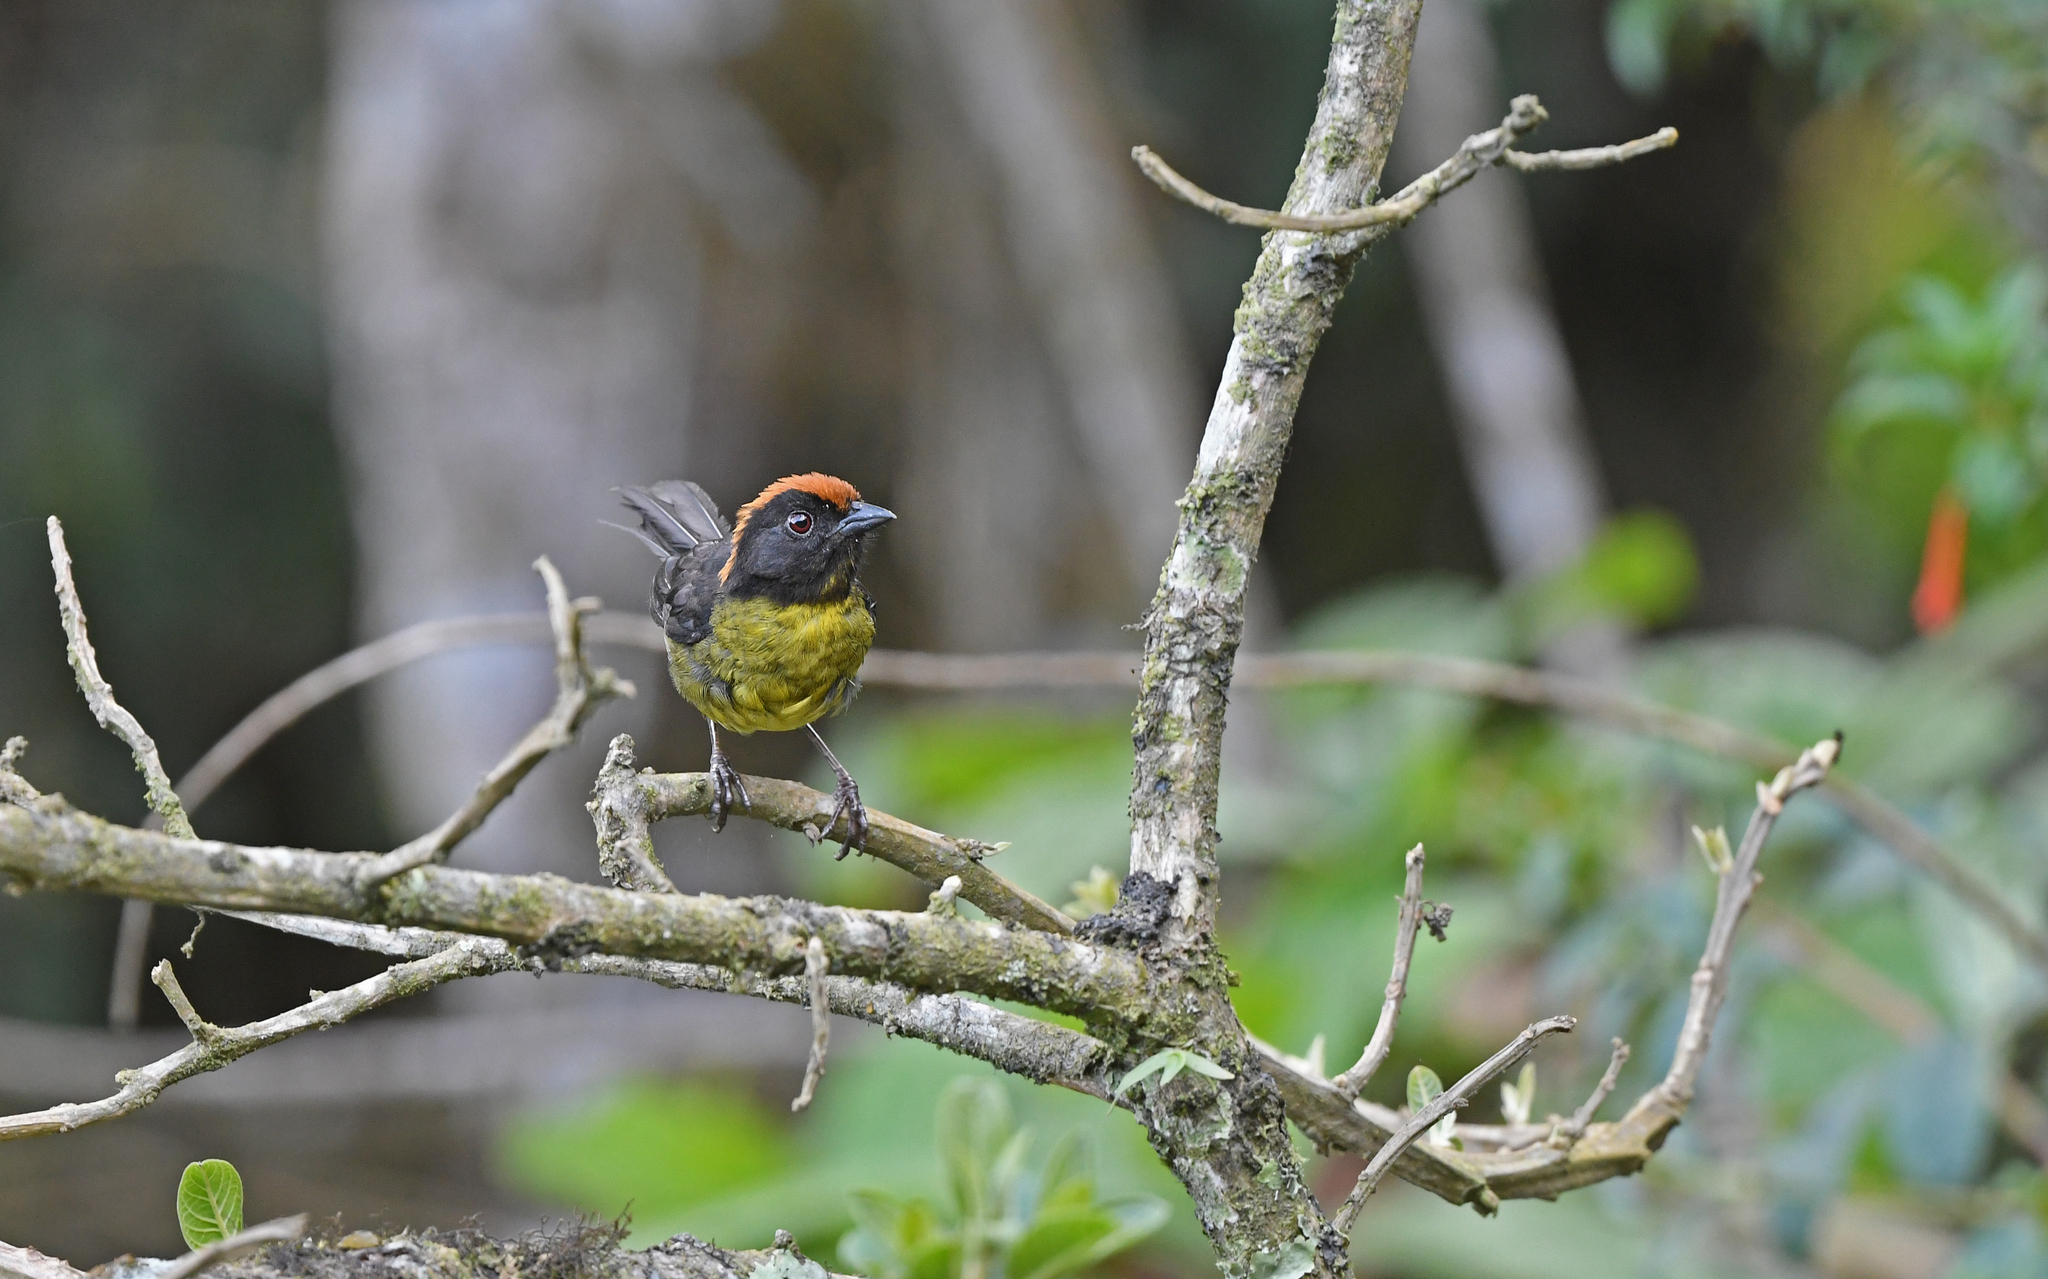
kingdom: Animalia
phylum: Chordata
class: Aves
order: Passeriformes
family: Passerellidae
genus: Atlapetes
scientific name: Atlapetes melanolaemus
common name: Grey-eared brush finch
